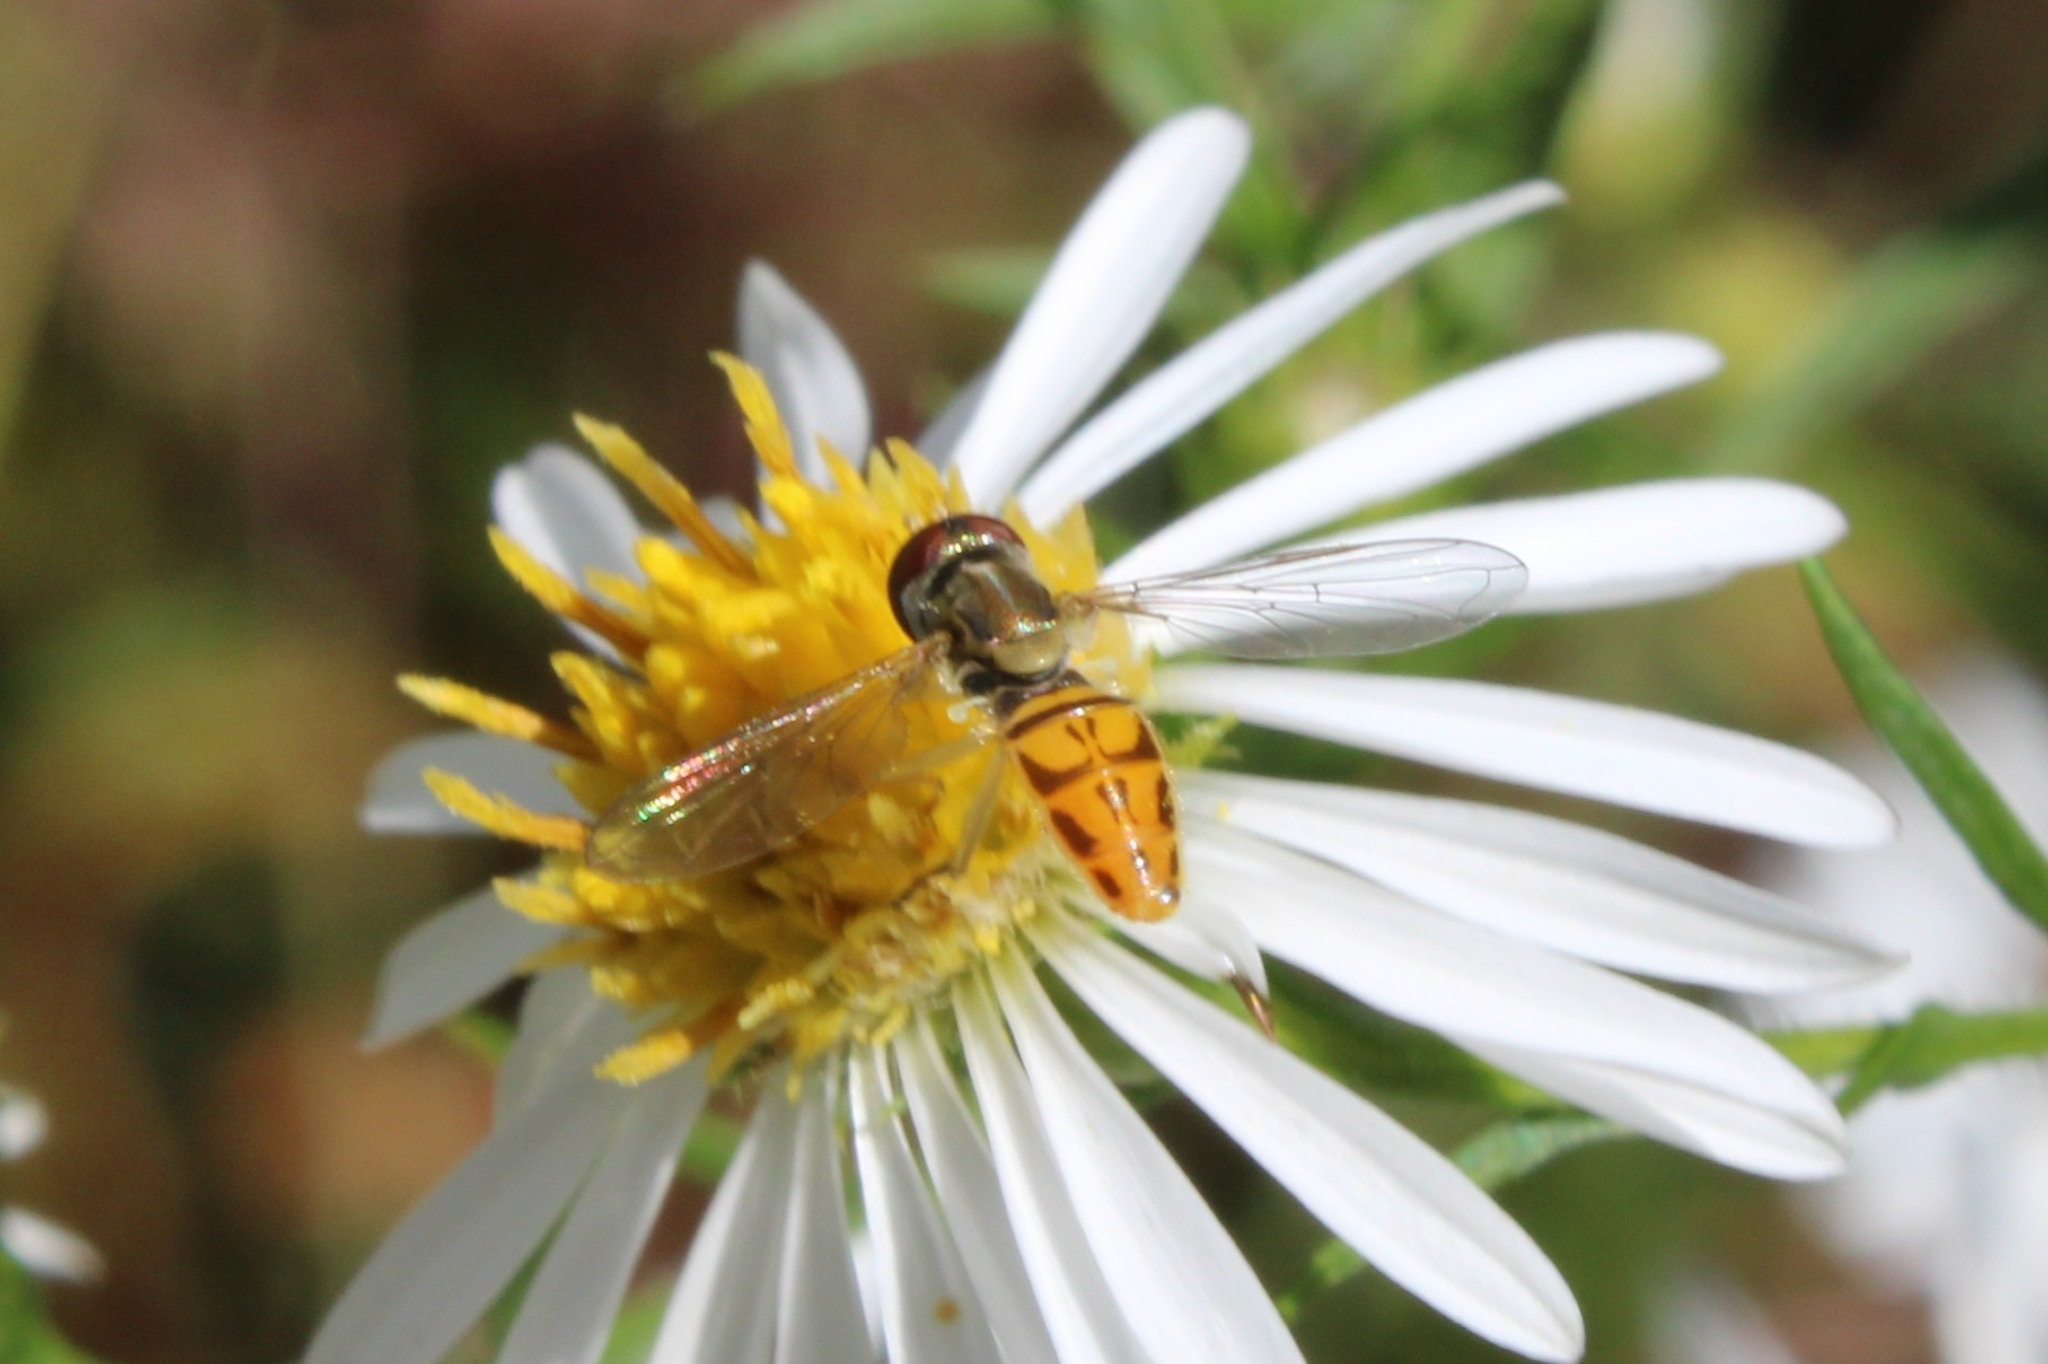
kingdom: Animalia
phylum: Arthropoda
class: Insecta
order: Diptera
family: Syrphidae
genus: Toxomerus
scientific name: Toxomerus marginatus
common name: Syrphid fly
